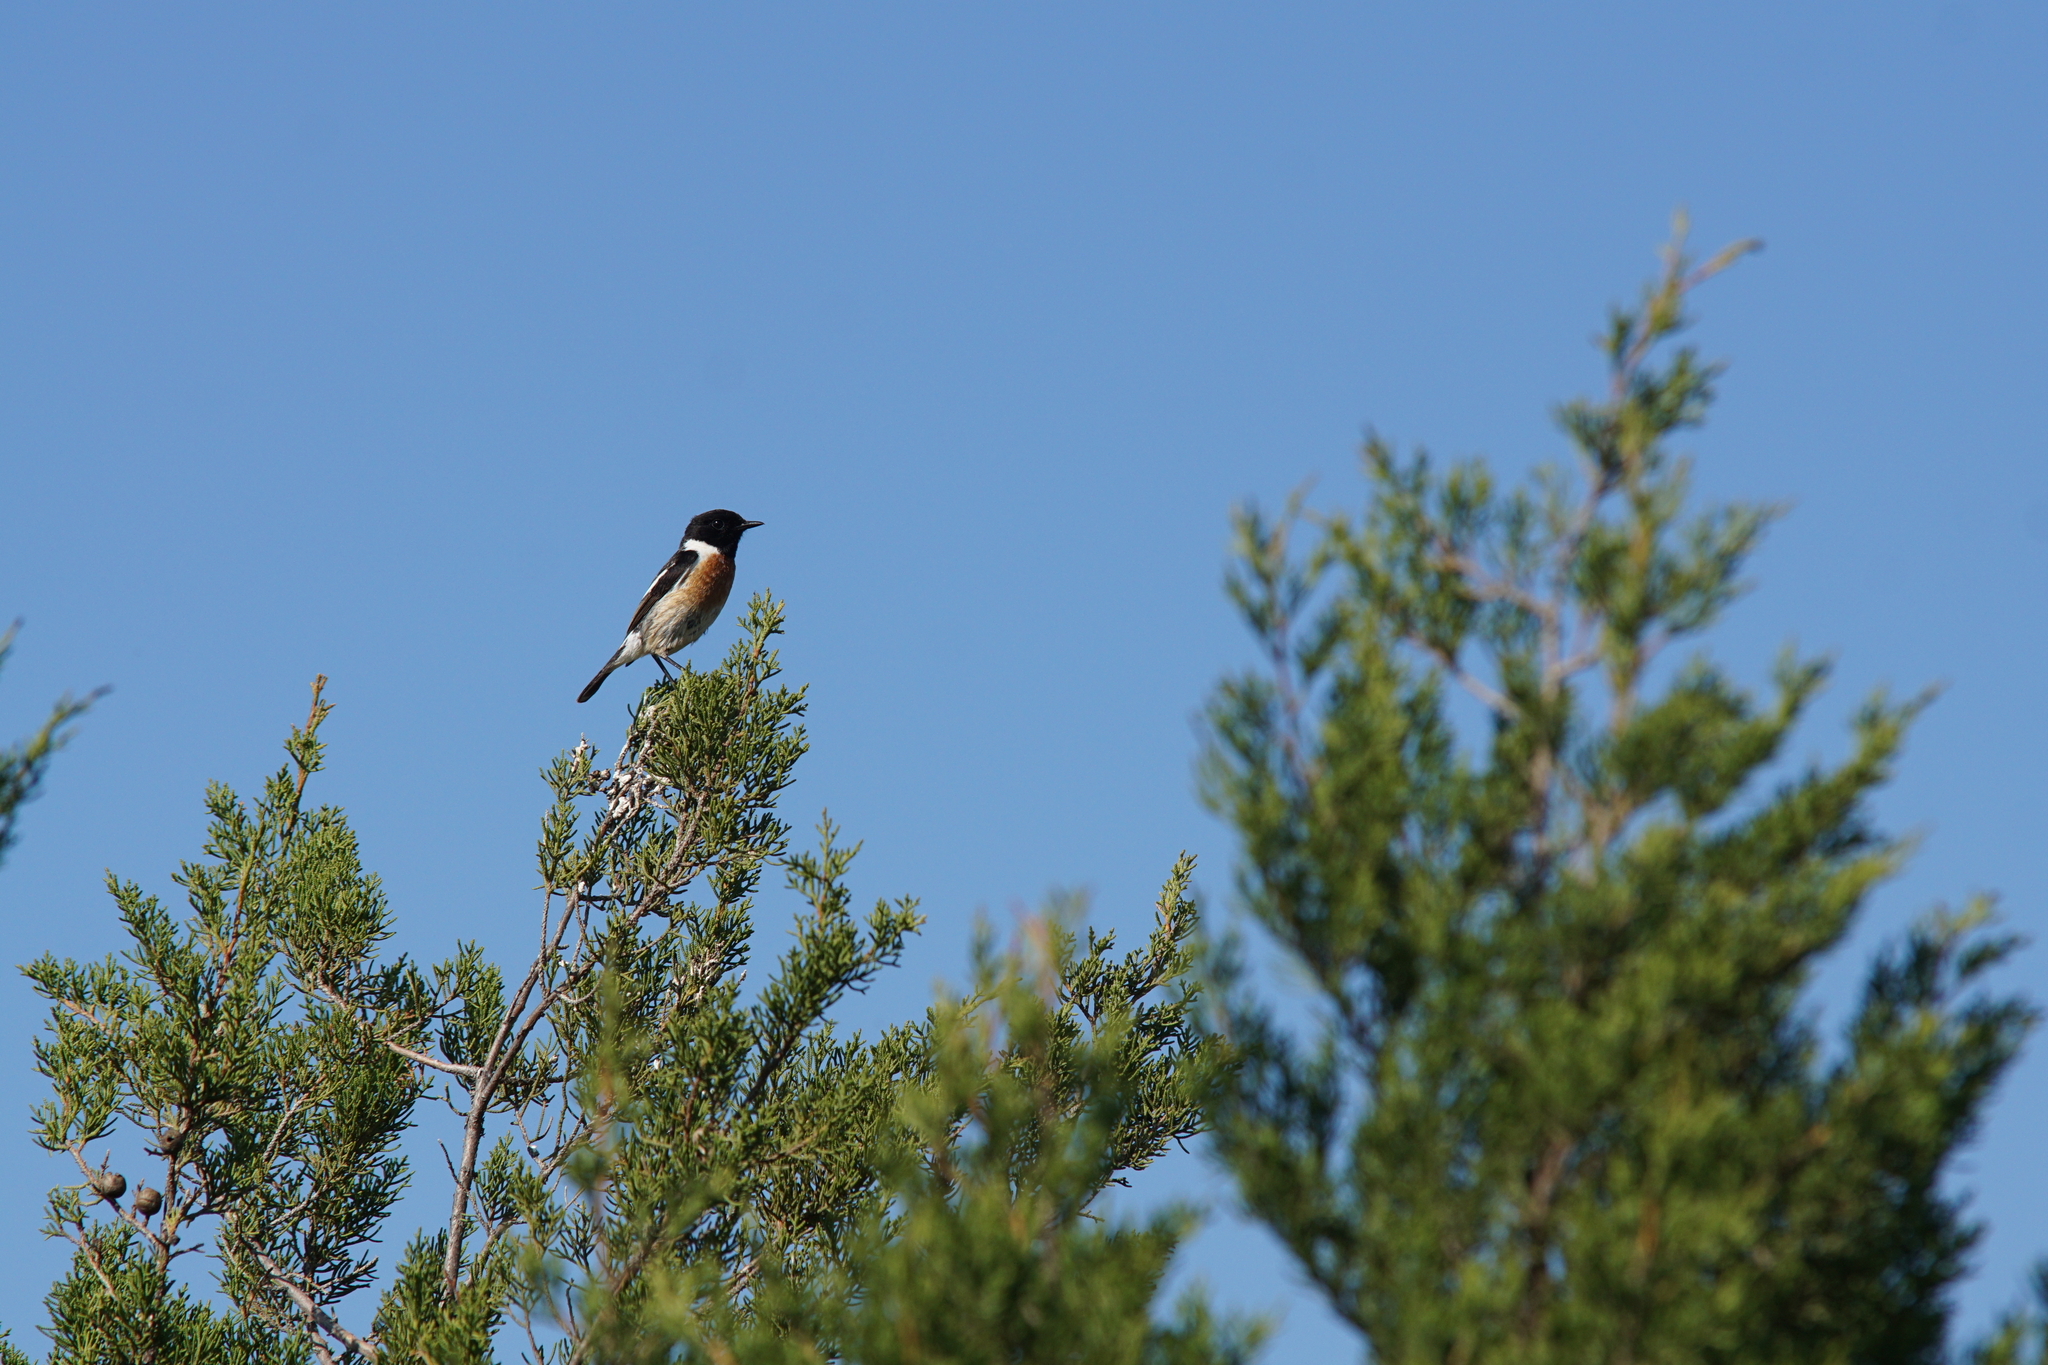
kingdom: Animalia
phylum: Chordata
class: Aves
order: Passeriformes
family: Muscicapidae
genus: Saxicola
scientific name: Saxicola rubicola
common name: European stonechat
